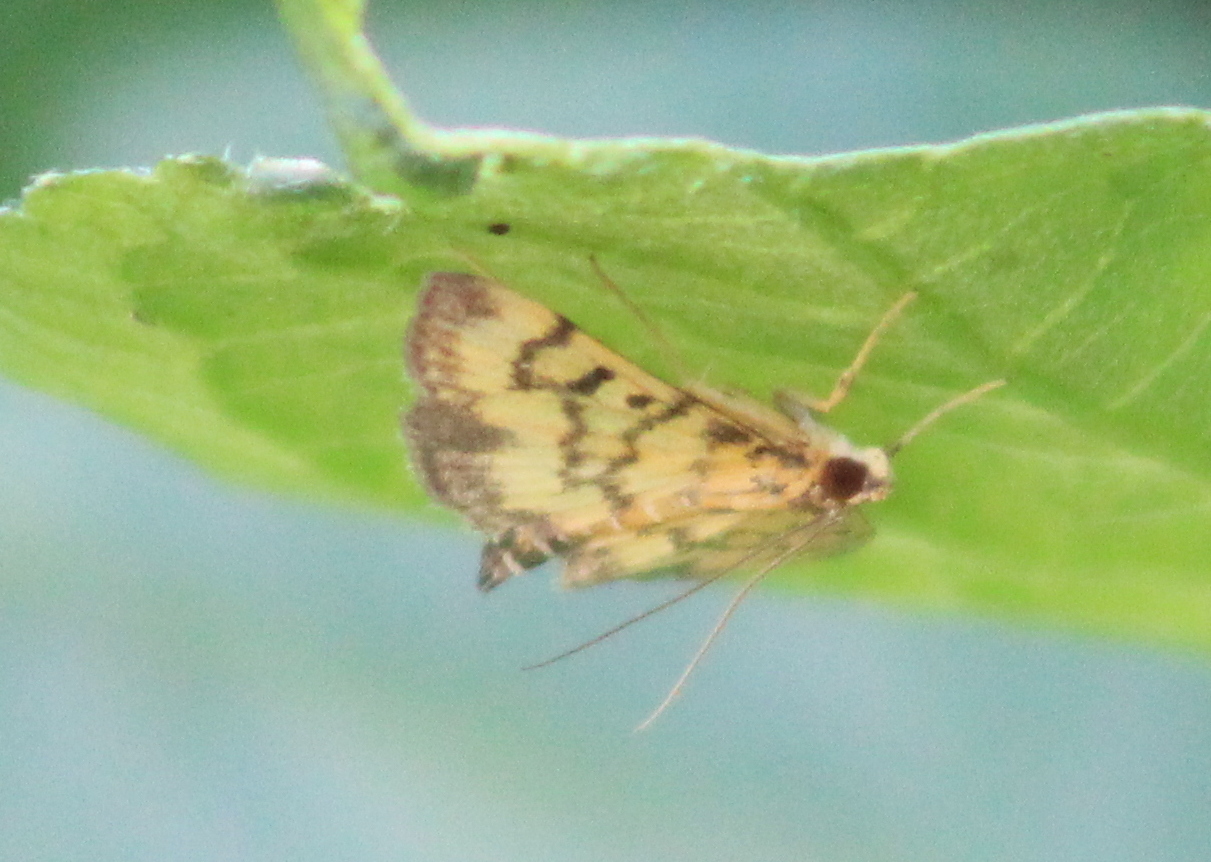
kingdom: Animalia
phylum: Arthropoda
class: Insecta
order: Lepidoptera
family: Crambidae
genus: Omiodes
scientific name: Omiodes diemenalis
